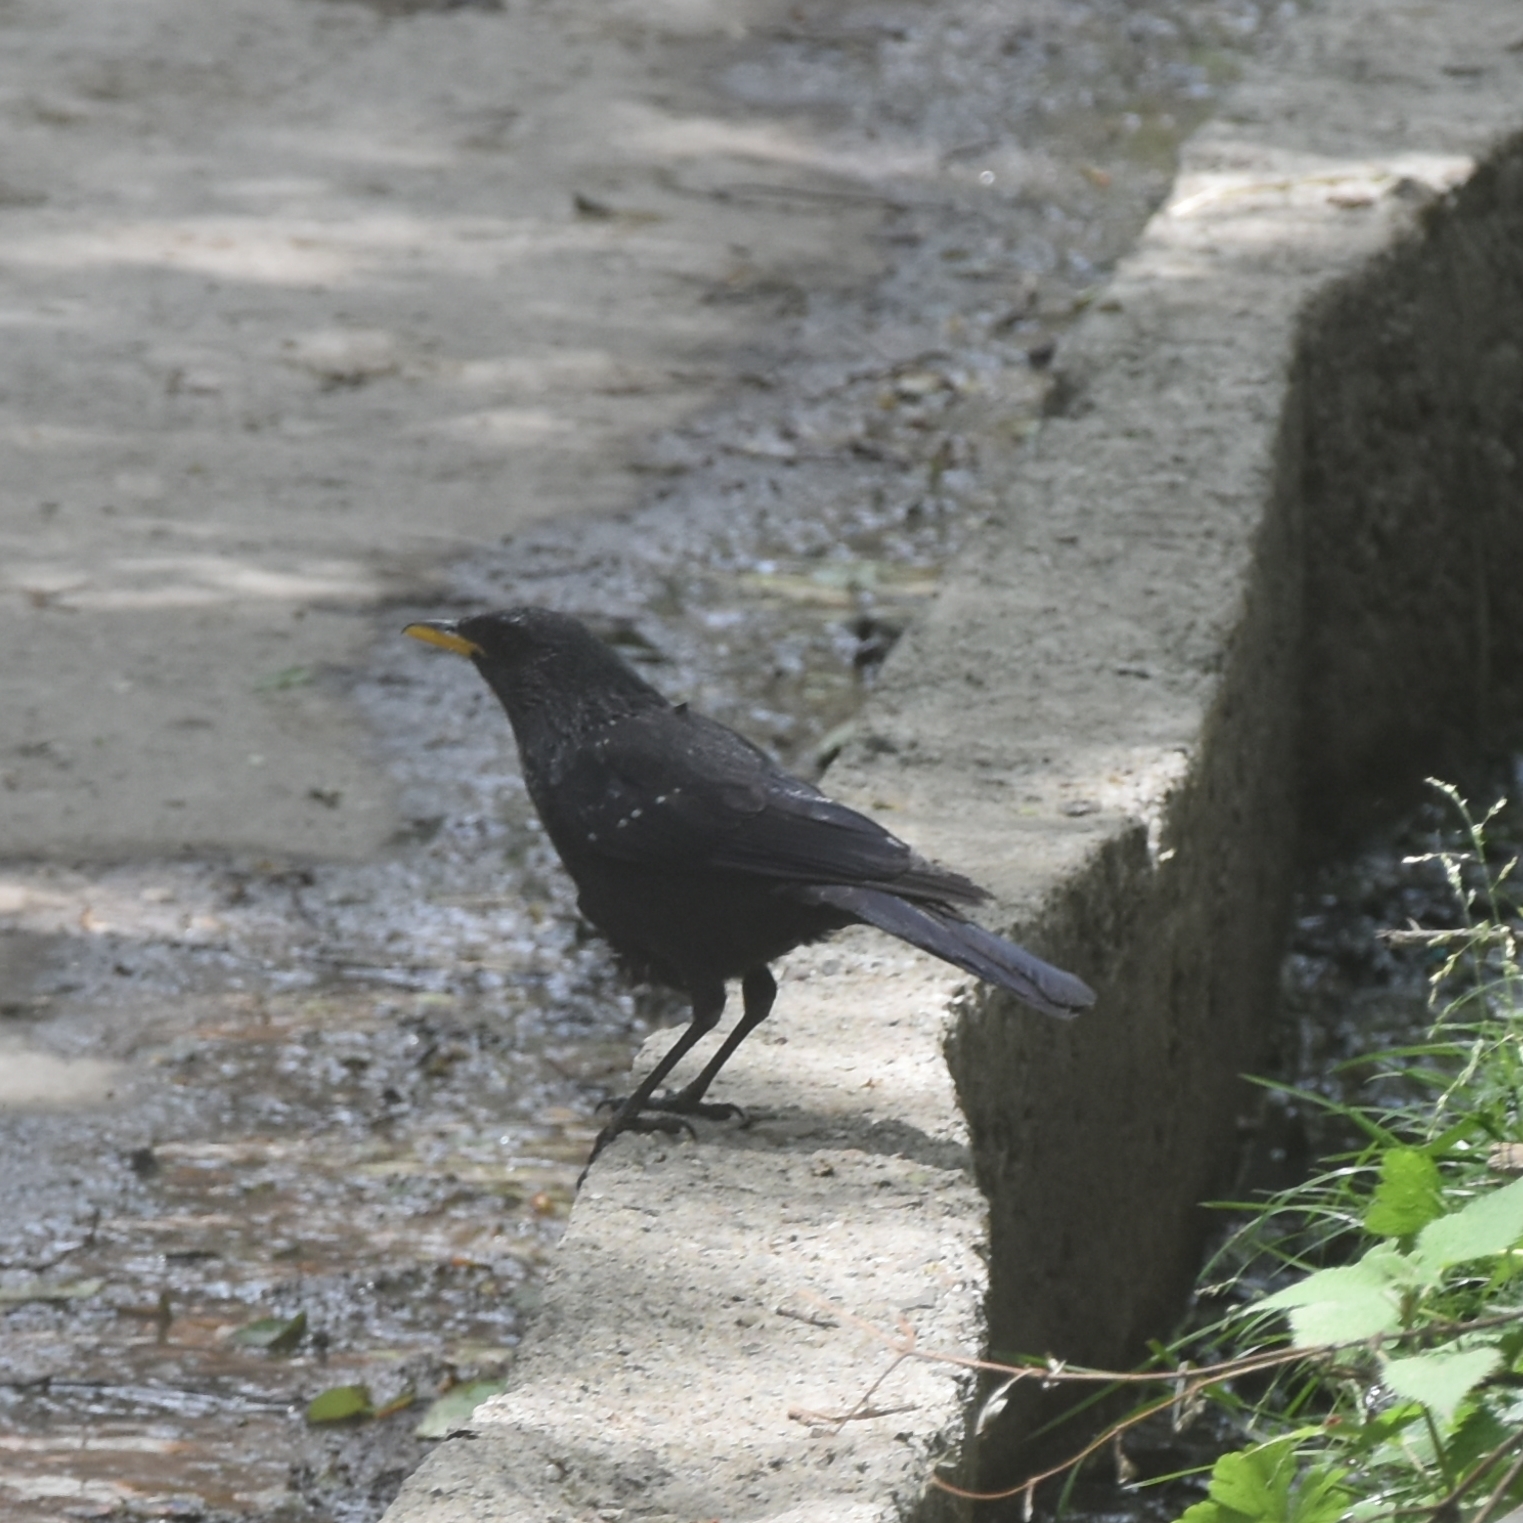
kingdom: Animalia
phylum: Chordata
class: Aves
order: Passeriformes
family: Muscicapidae
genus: Myophonus
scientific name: Myophonus caeruleus
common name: Blue whistling-thrush
